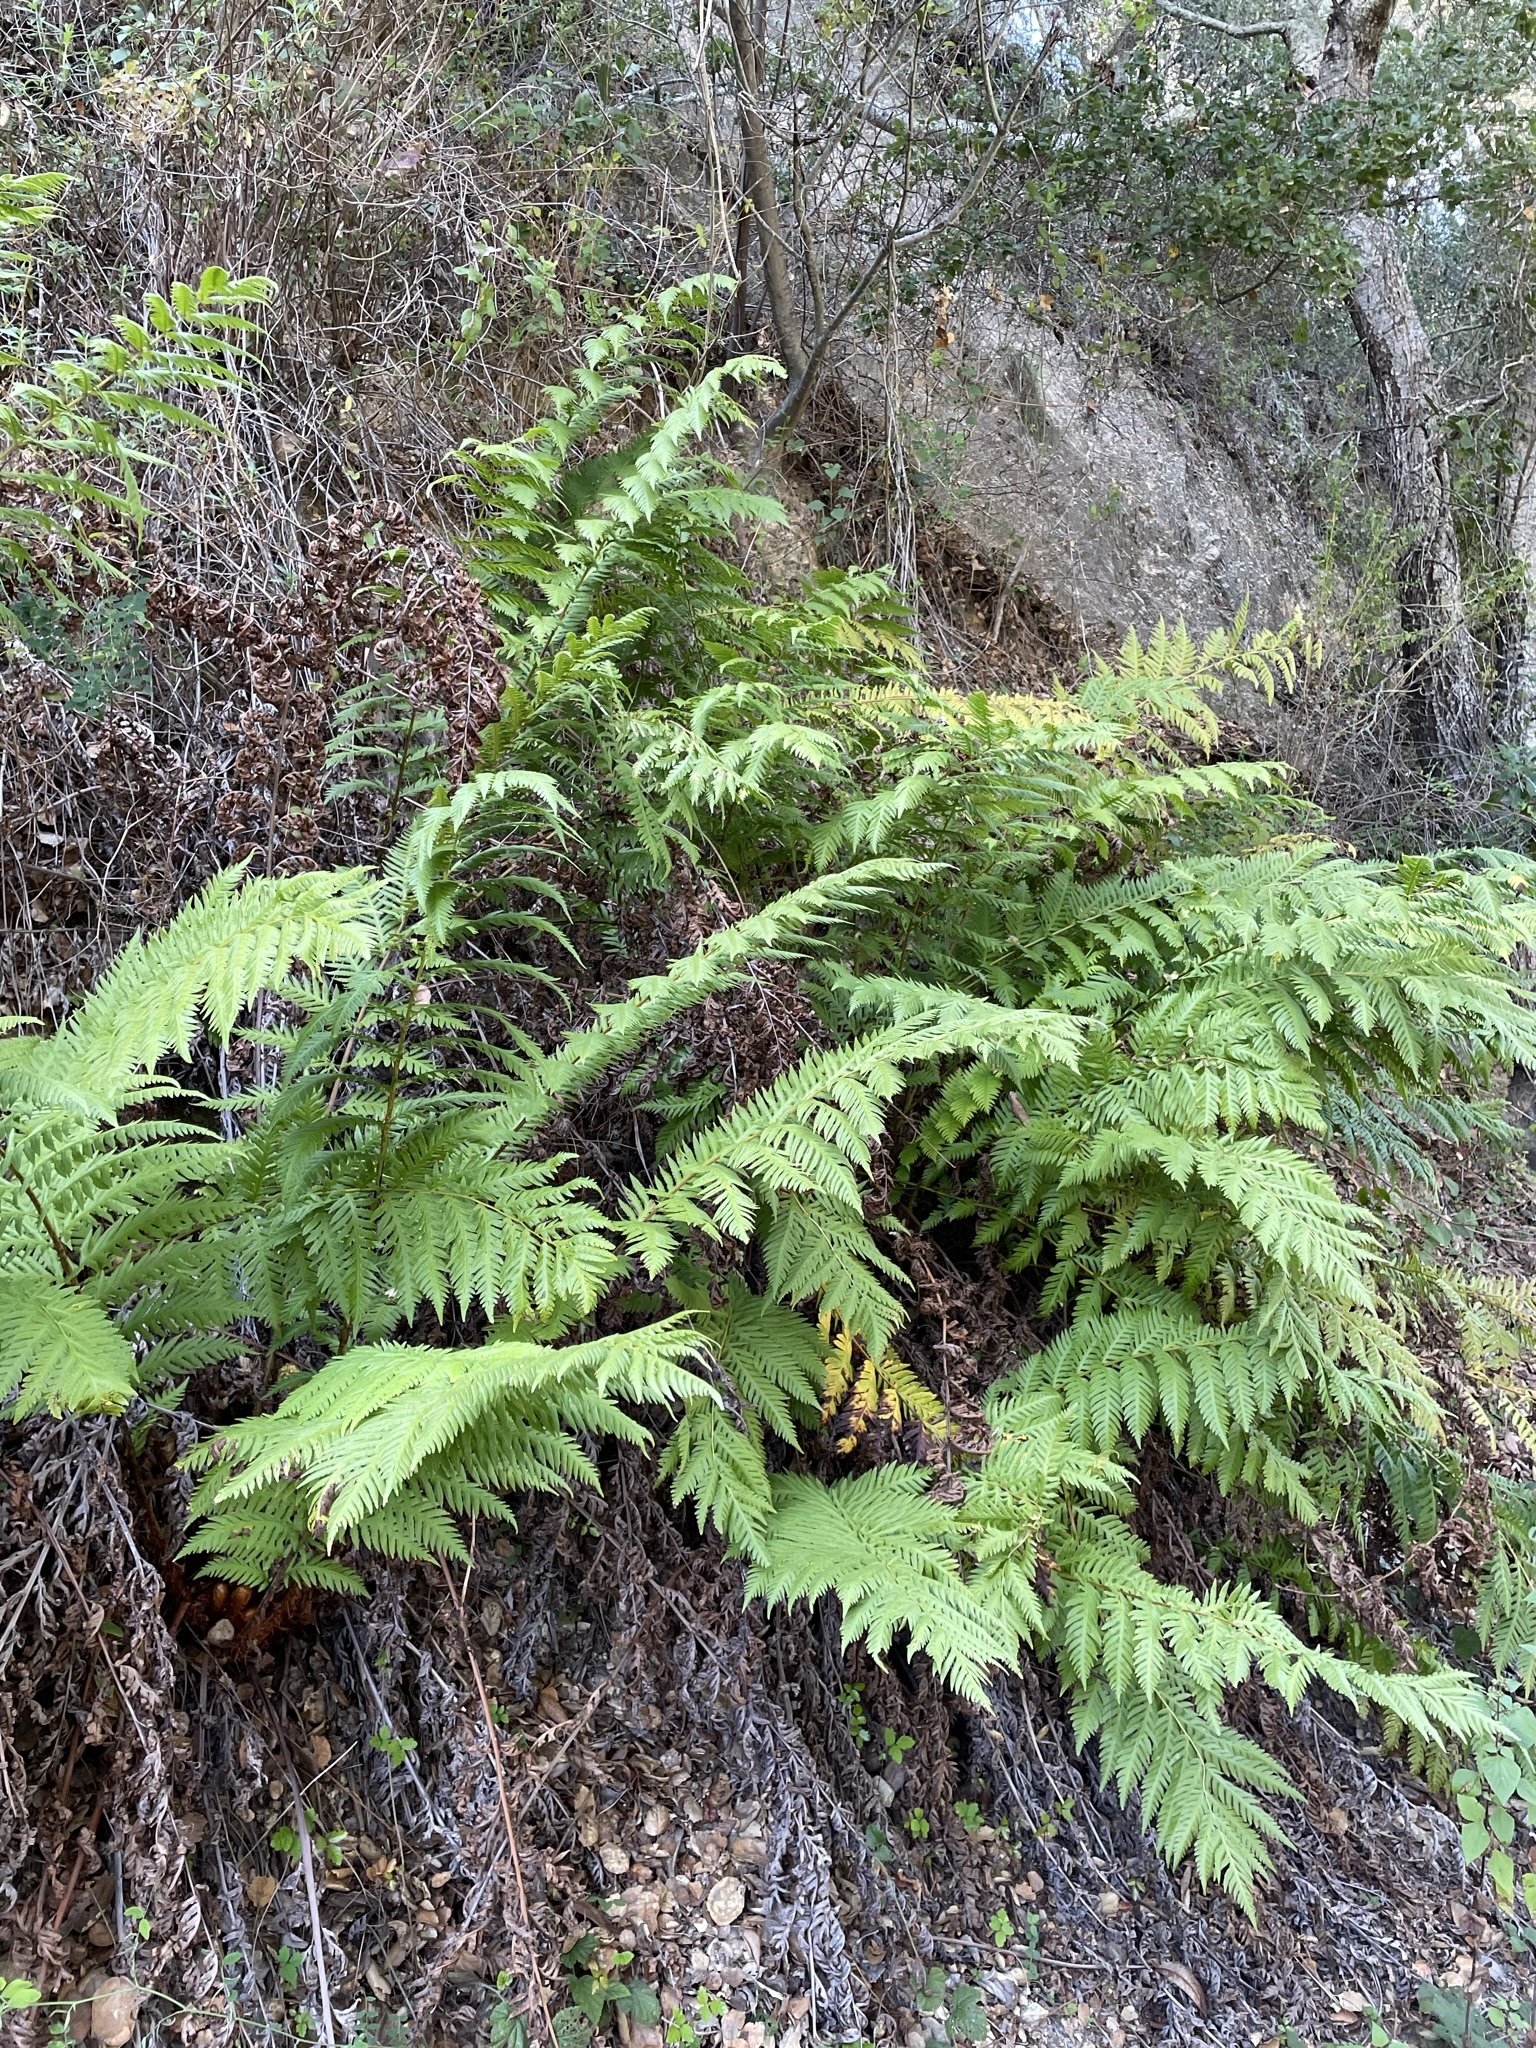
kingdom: Plantae
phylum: Tracheophyta
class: Polypodiopsida
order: Polypodiales
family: Blechnaceae
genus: Woodwardia
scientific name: Woodwardia fimbriata
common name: Giant chain fern
